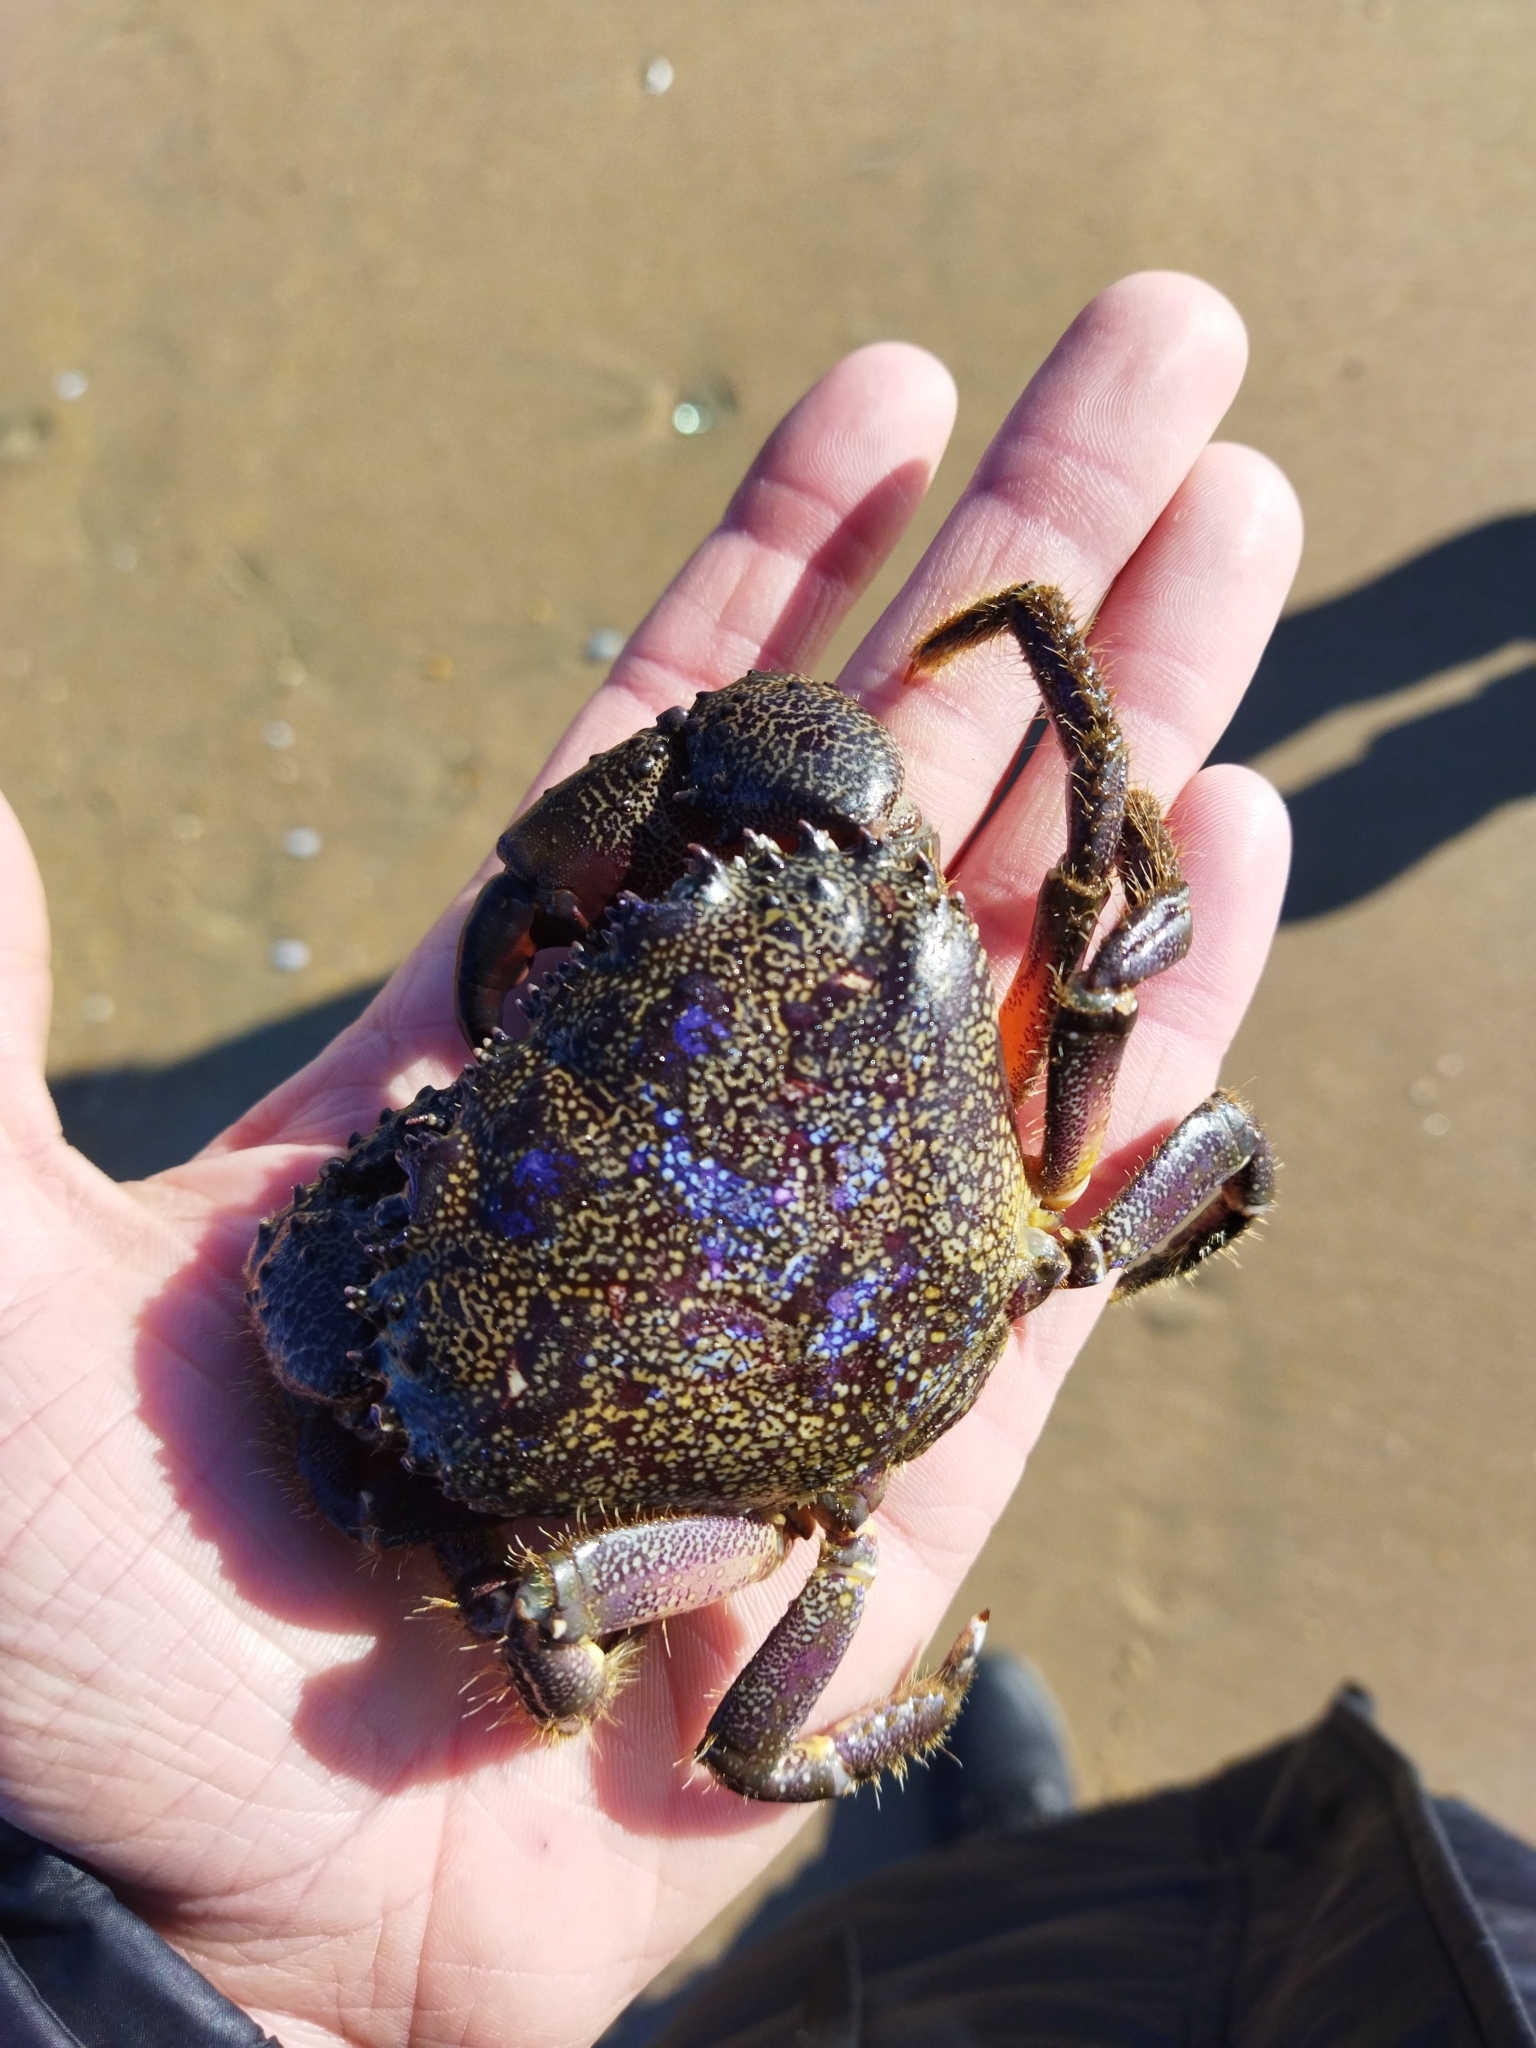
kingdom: Animalia
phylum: Arthropoda
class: Malacostraca
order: Decapoda
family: Eriphiidae
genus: Eriphia
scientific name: Eriphia verrucosa
